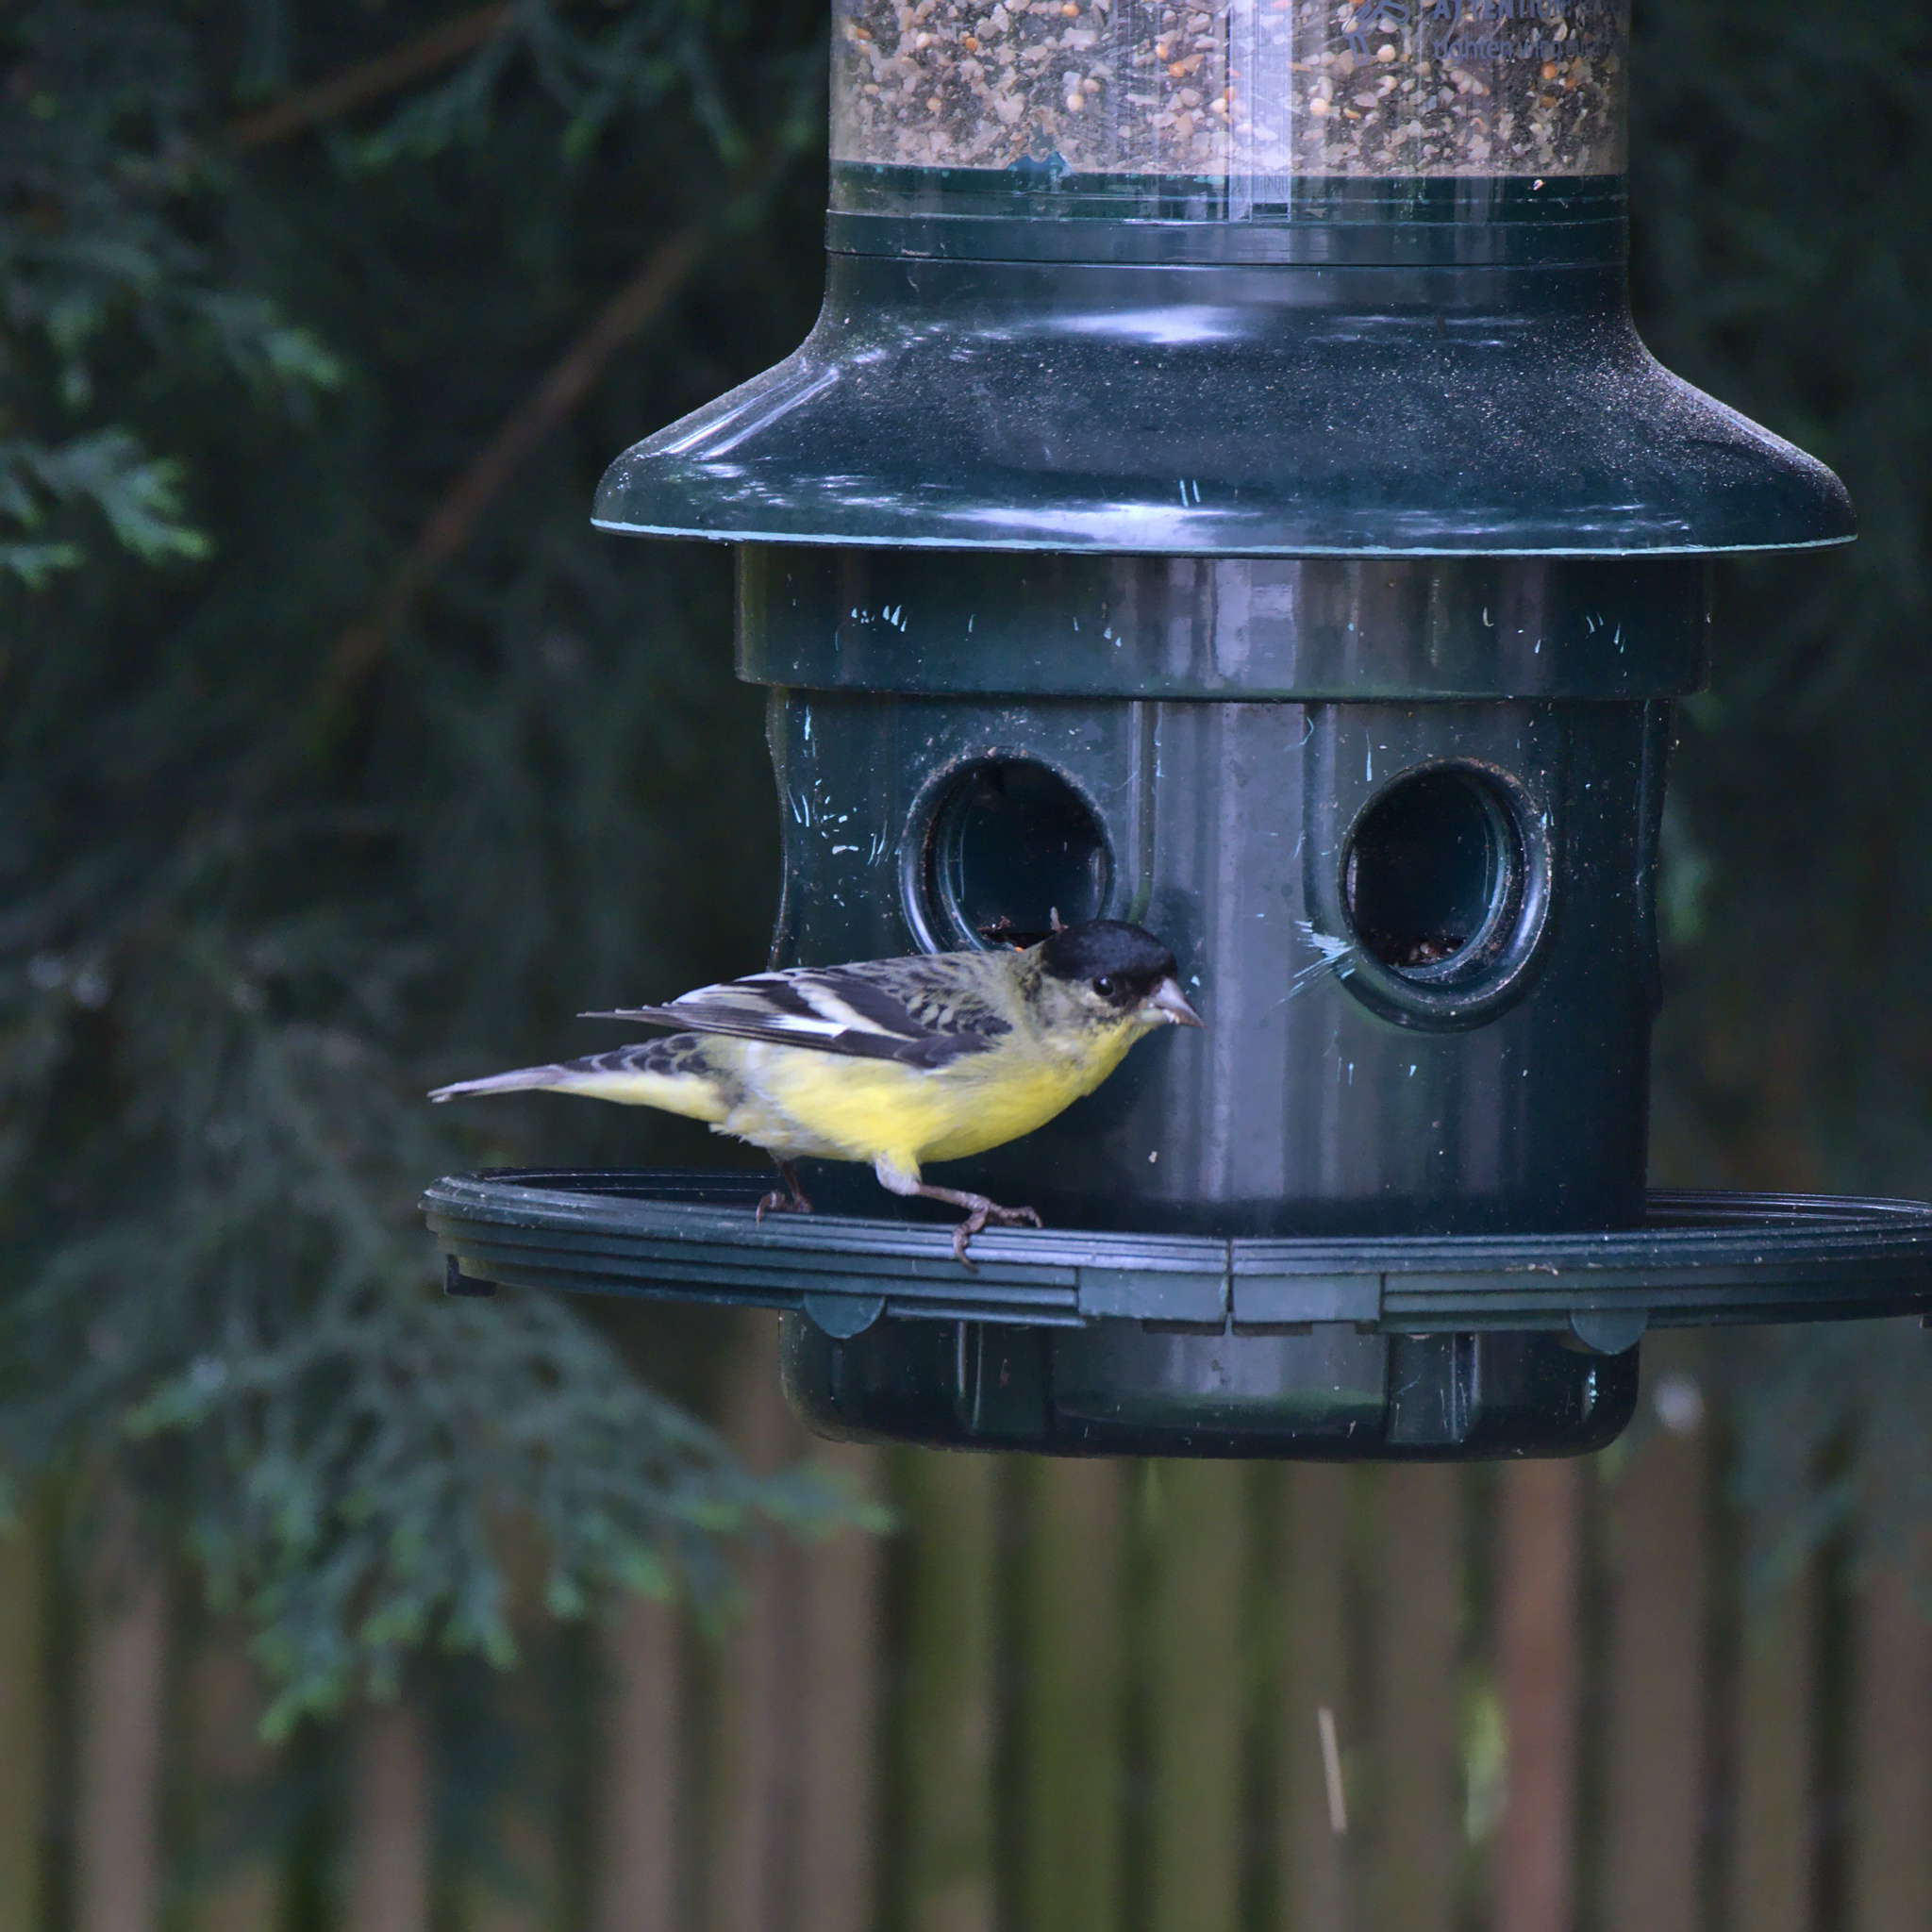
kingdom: Animalia
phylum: Chordata
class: Aves
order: Passeriformes
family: Fringillidae
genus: Spinus
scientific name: Spinus psaltria
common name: Lesser goldfinch
